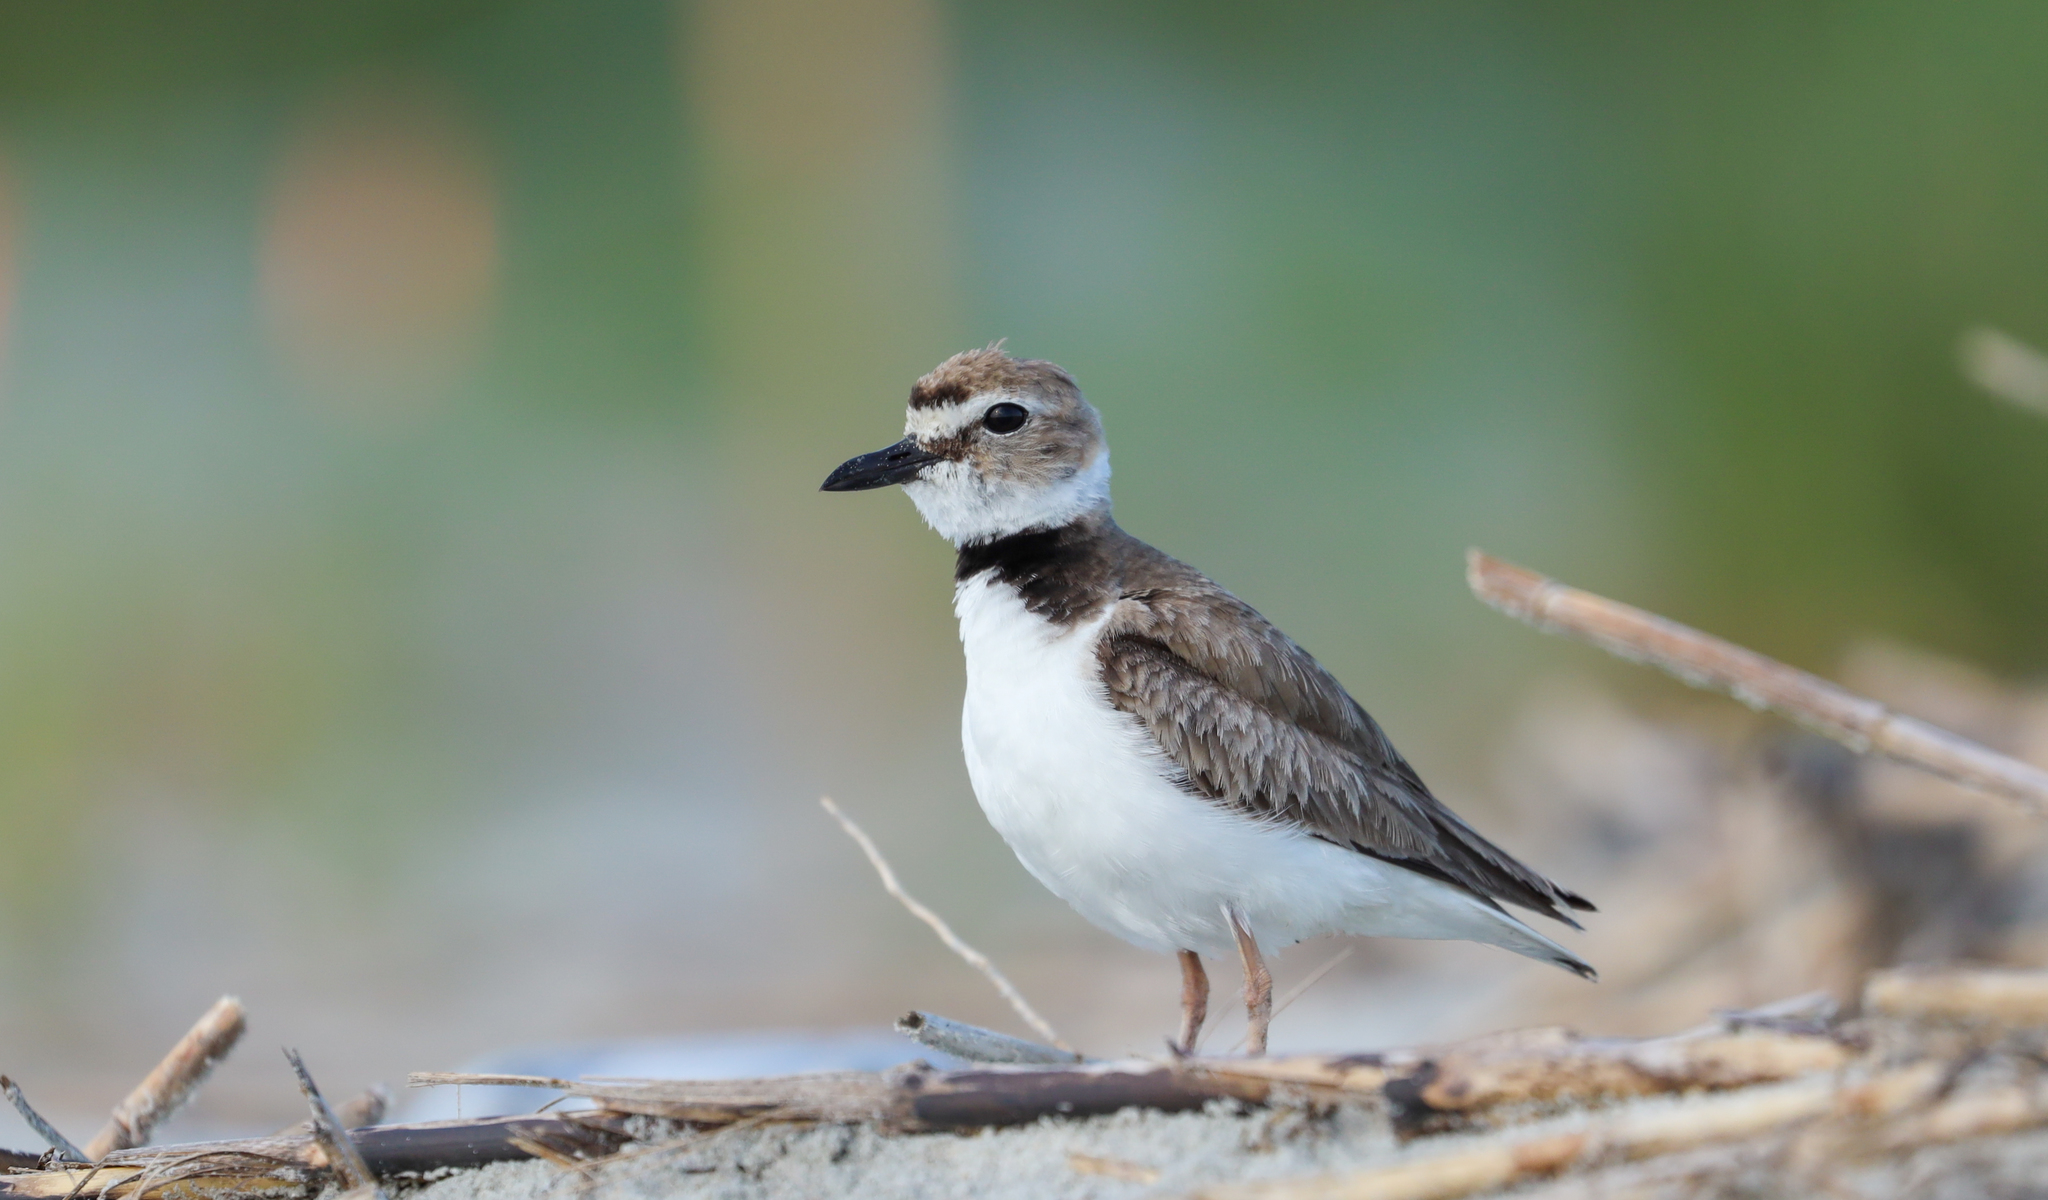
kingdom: Animalia
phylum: Chordata
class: Aves
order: Charadriiformes
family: Charadriidae
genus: Anarhynchus
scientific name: Anarhynchus
